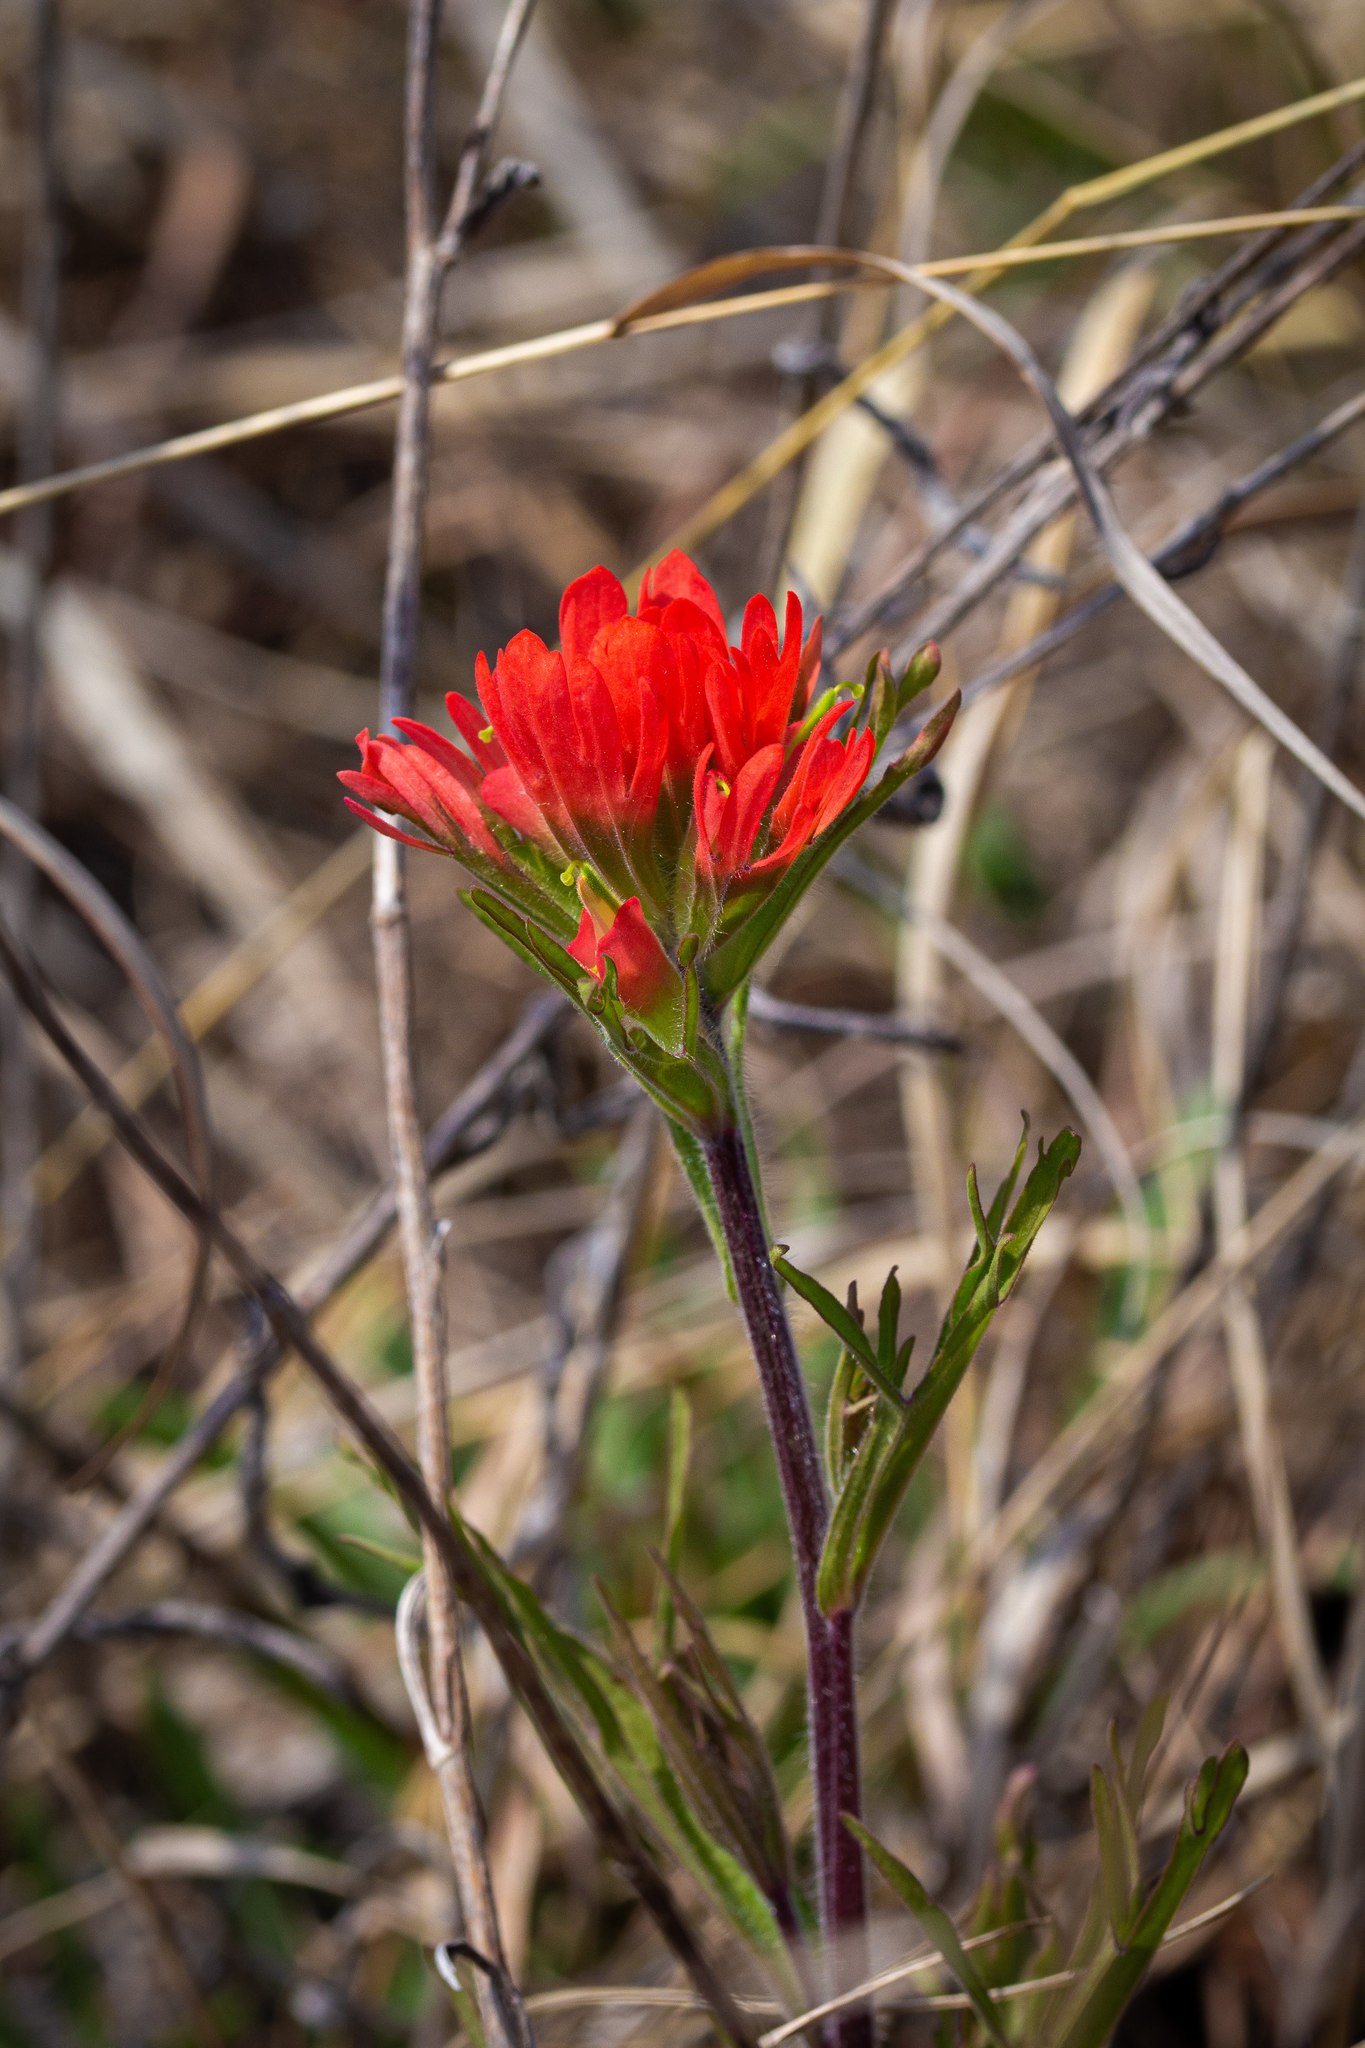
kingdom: Plantae
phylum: Tracheophyta
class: Magnoliopsida
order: Lamiales
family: Orobanchaceae
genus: Castilleja
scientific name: Castilleja coccinea
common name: Scarlet paintbrush
